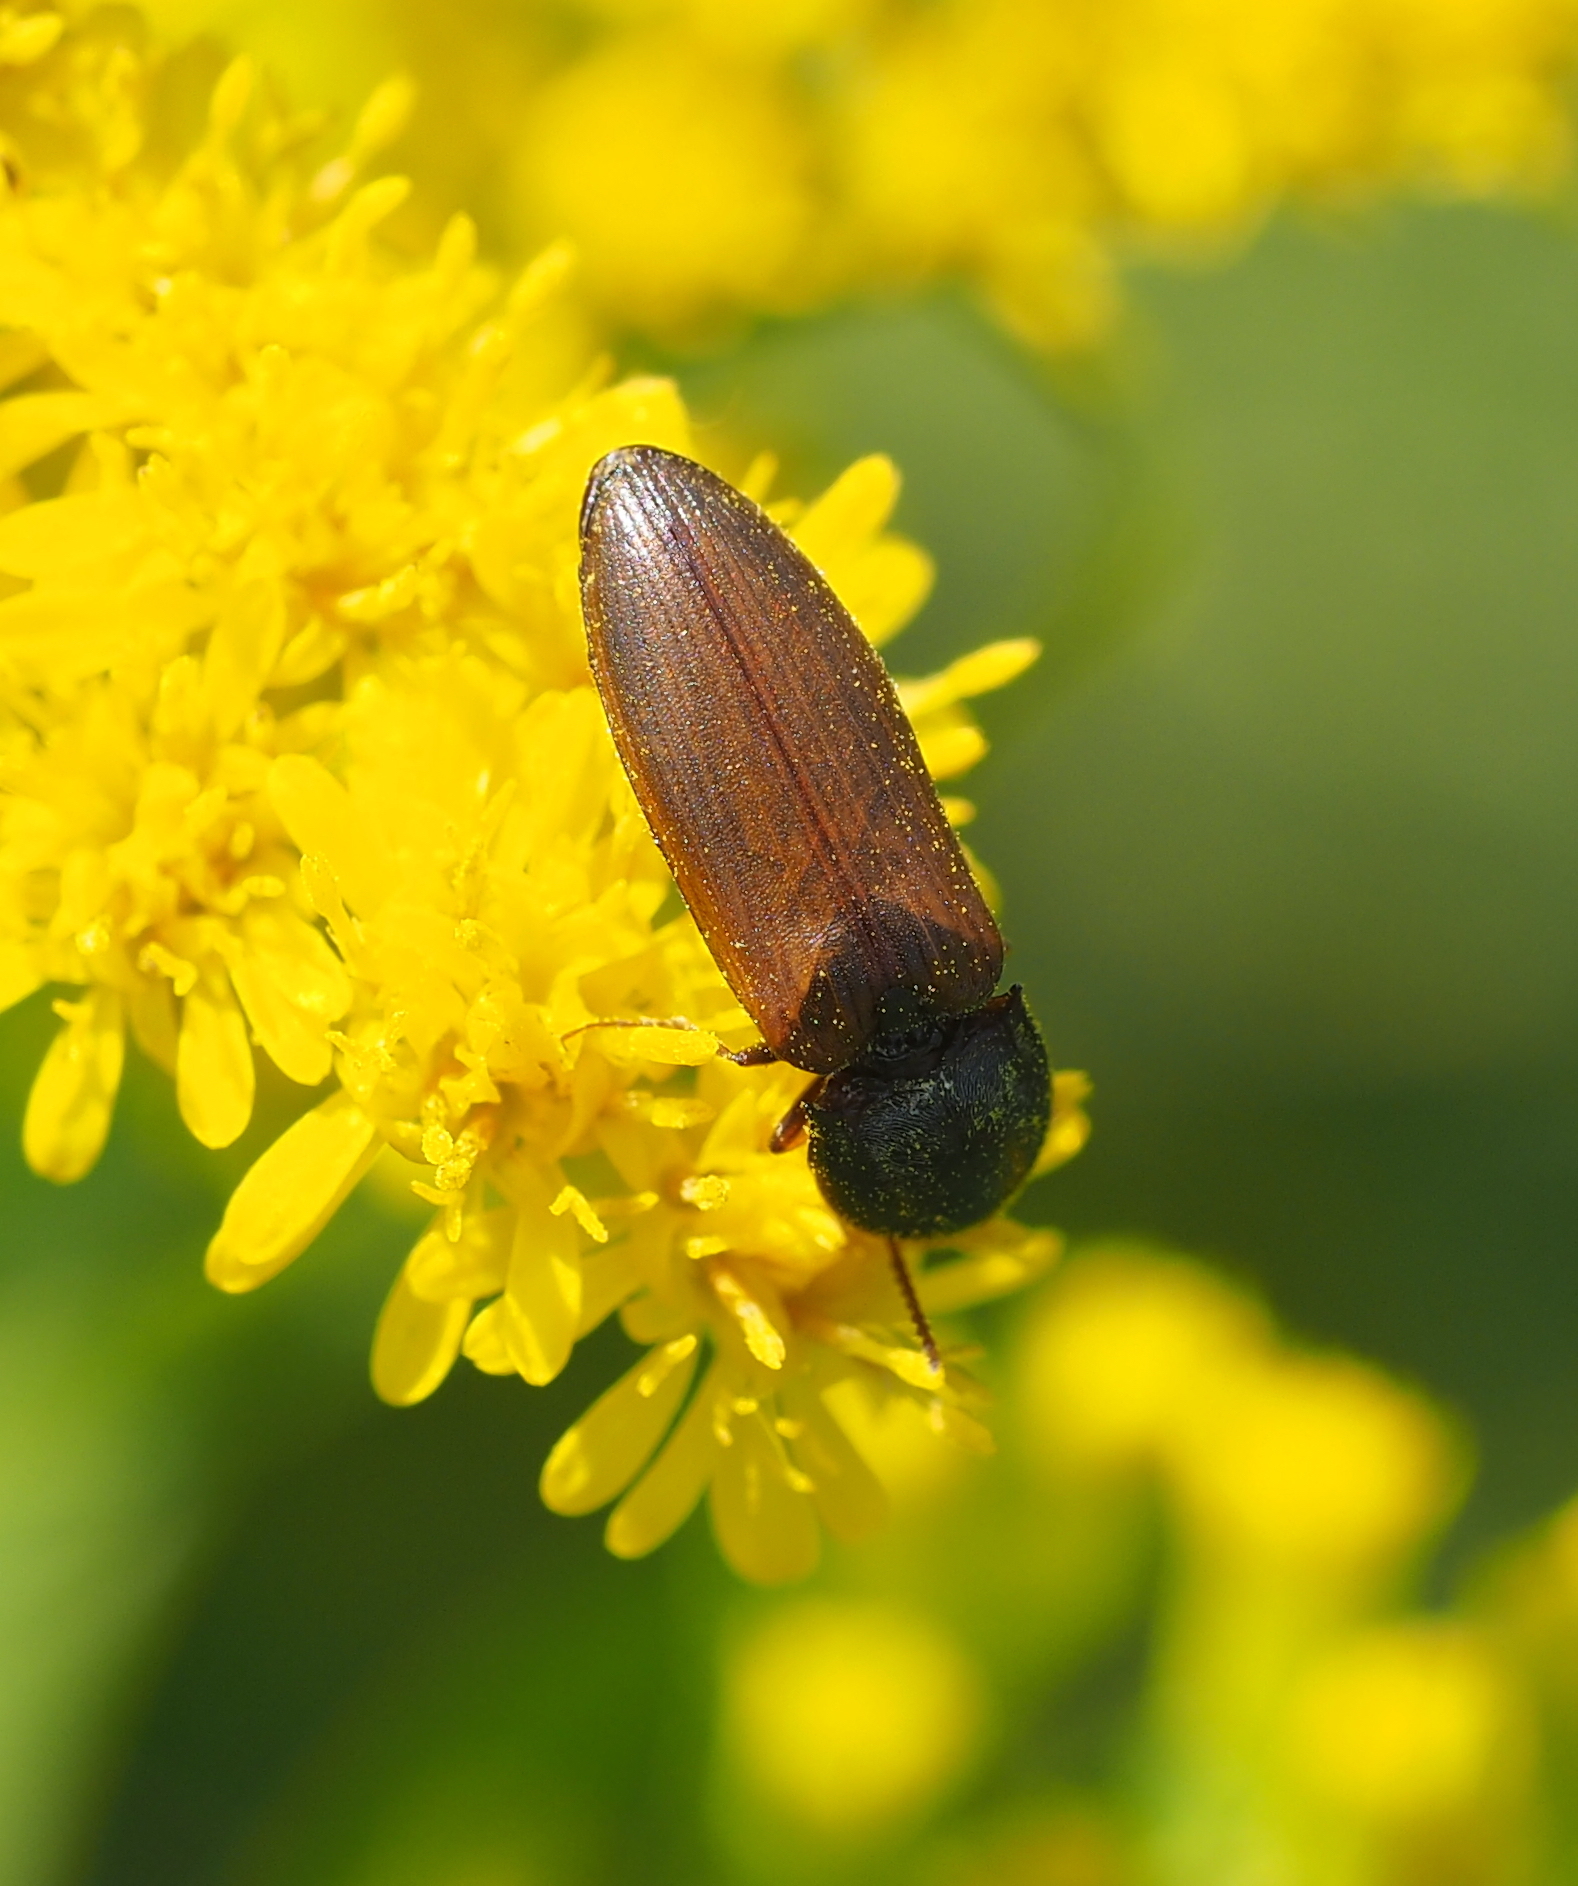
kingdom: Animalia
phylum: Arthropoda
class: Insecta
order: Coleoptera
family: Elateridae
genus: Agriotes
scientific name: Agriotes ustulatus
